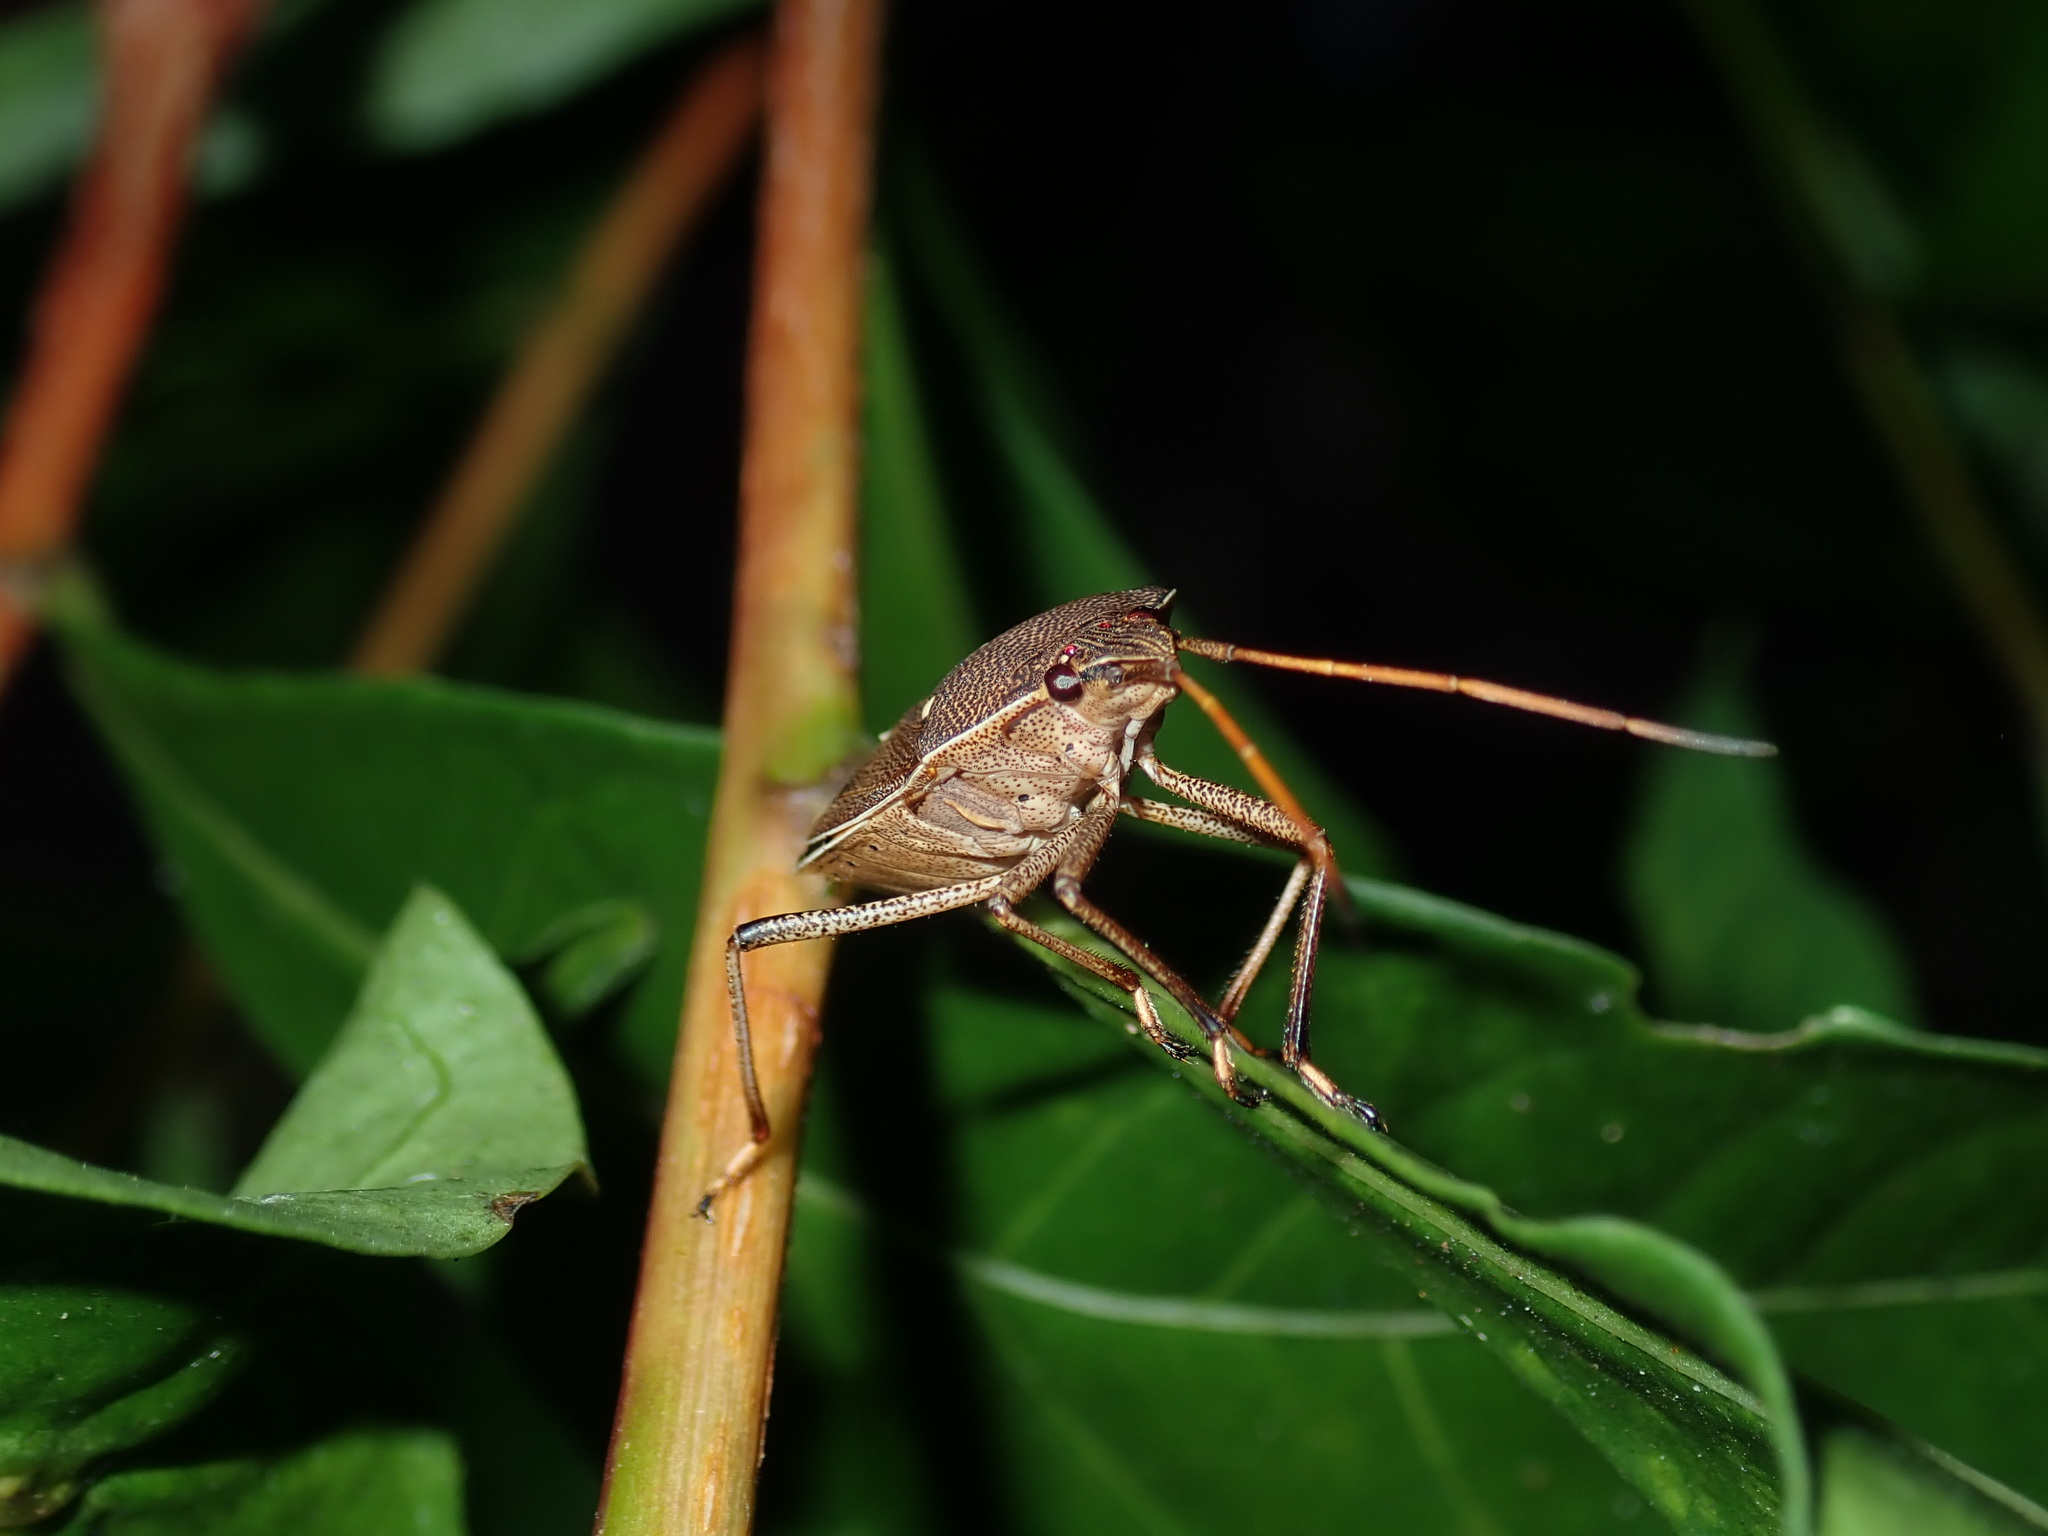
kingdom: Animalia
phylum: Arthropoda
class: Insecta
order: Hemiptera
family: Pentatomidae
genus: Poecilometis
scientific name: Poecilometis
